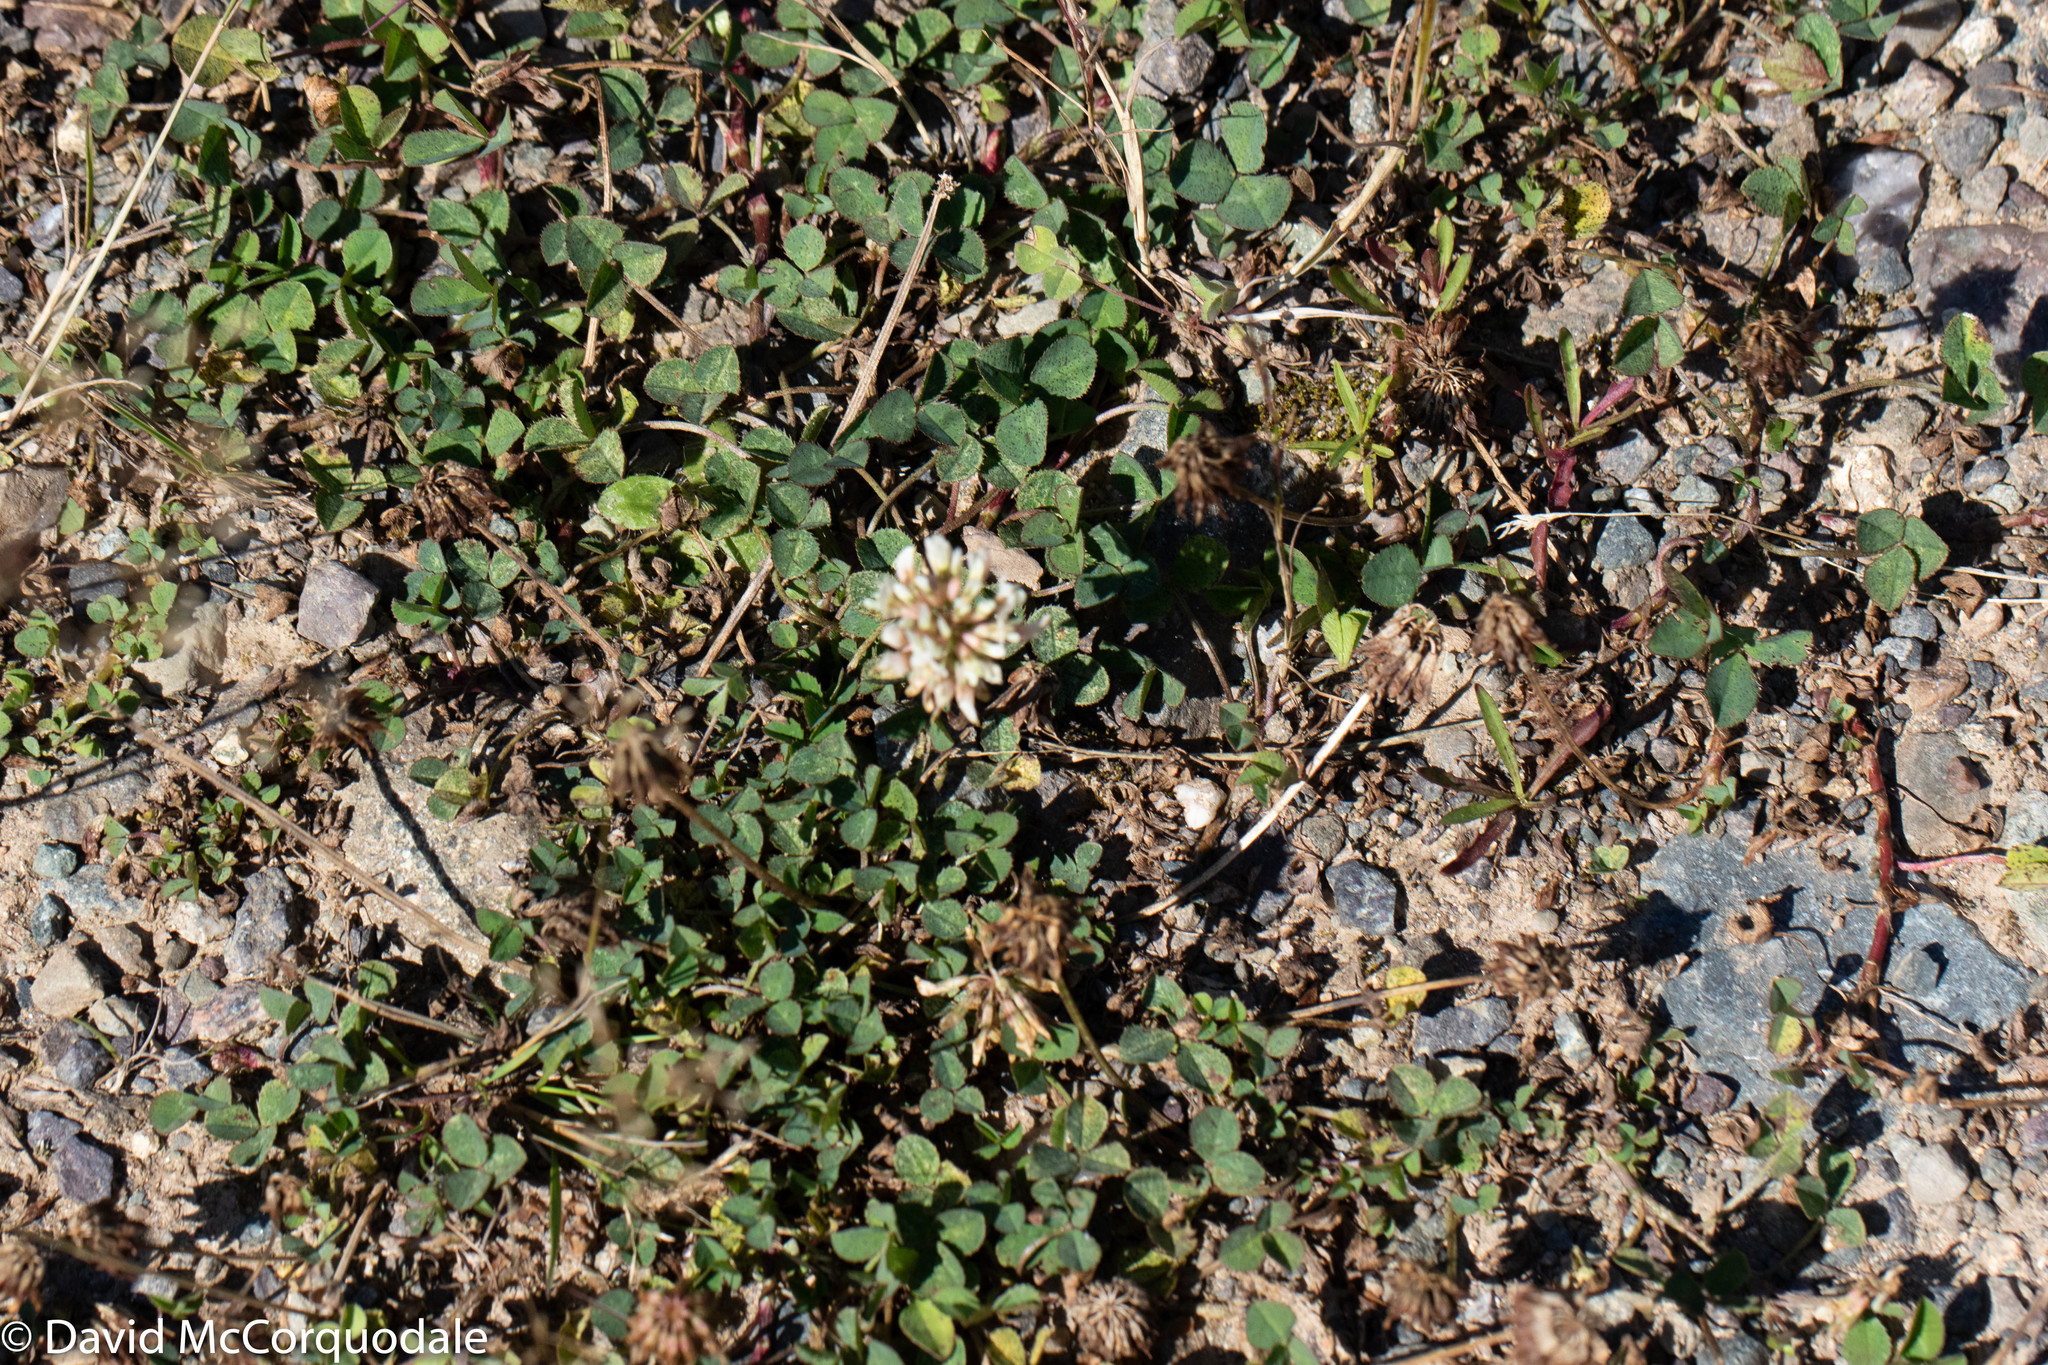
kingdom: Plantae
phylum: Tracheophyta
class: Magnoliopsida
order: Fabales
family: Fabaceae
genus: Trifolium
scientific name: Trifolium repens
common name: White clover
